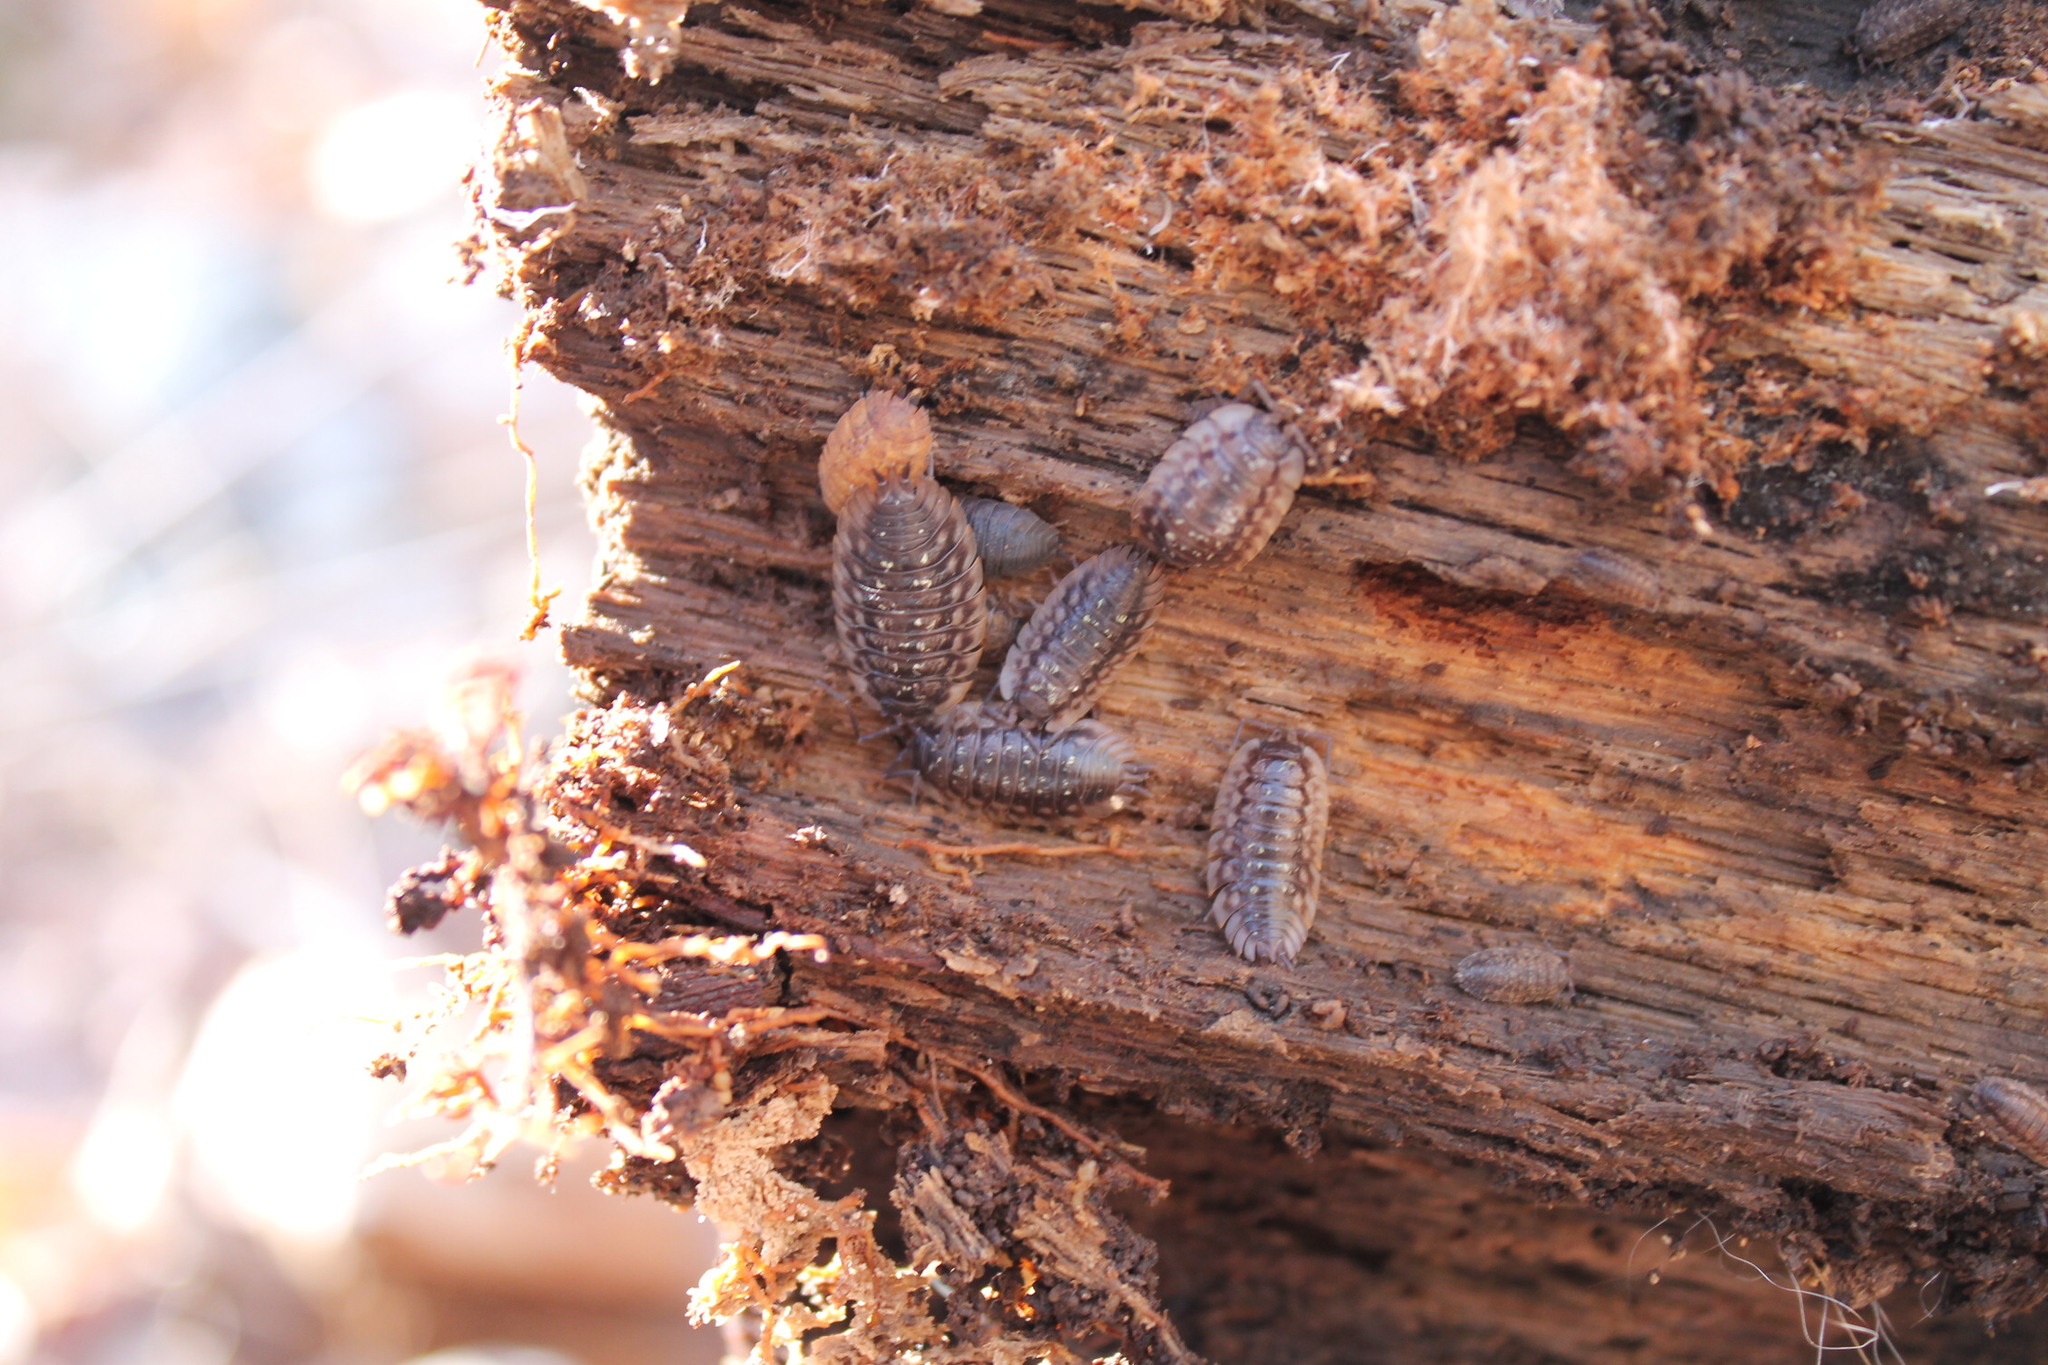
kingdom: Animalia
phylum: Arthropoda
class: Malacostraca
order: Isopoda
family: Oniscidae
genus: Oniscus
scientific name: Oniscus asellus
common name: Common shiny woodlouse
